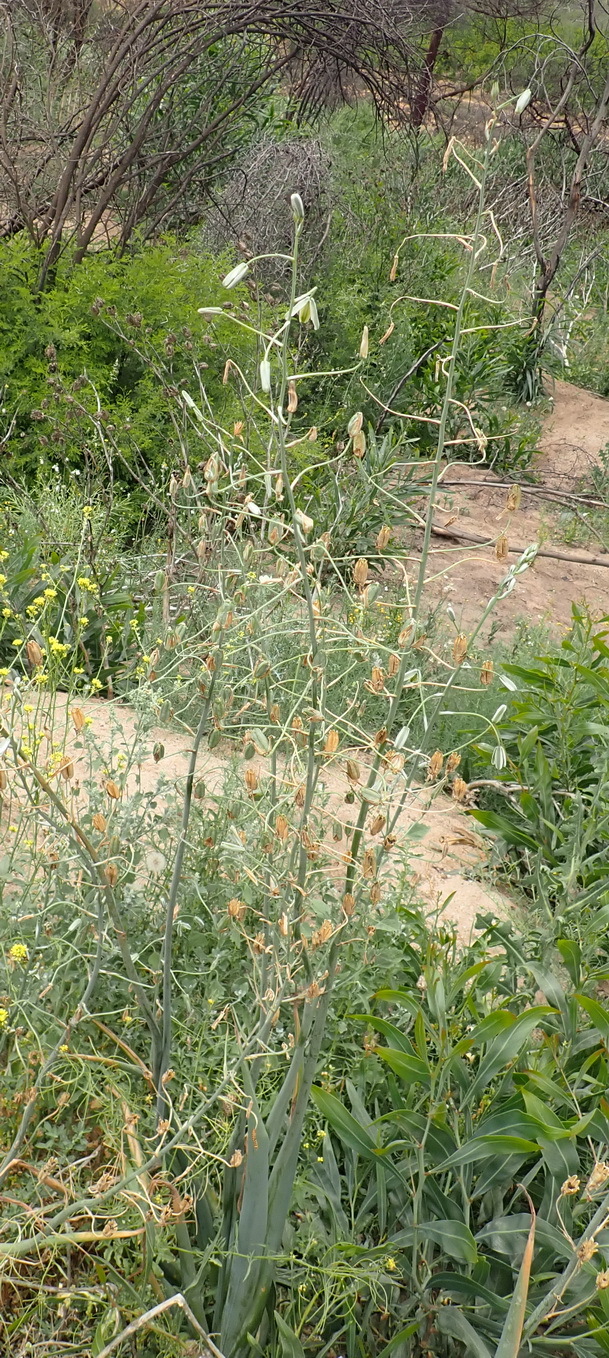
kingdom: Plantae
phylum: Tracheophyta
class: Liliopsida
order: Asparagales
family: Asparagaceae
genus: Albuca
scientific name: Albuca canadensis
